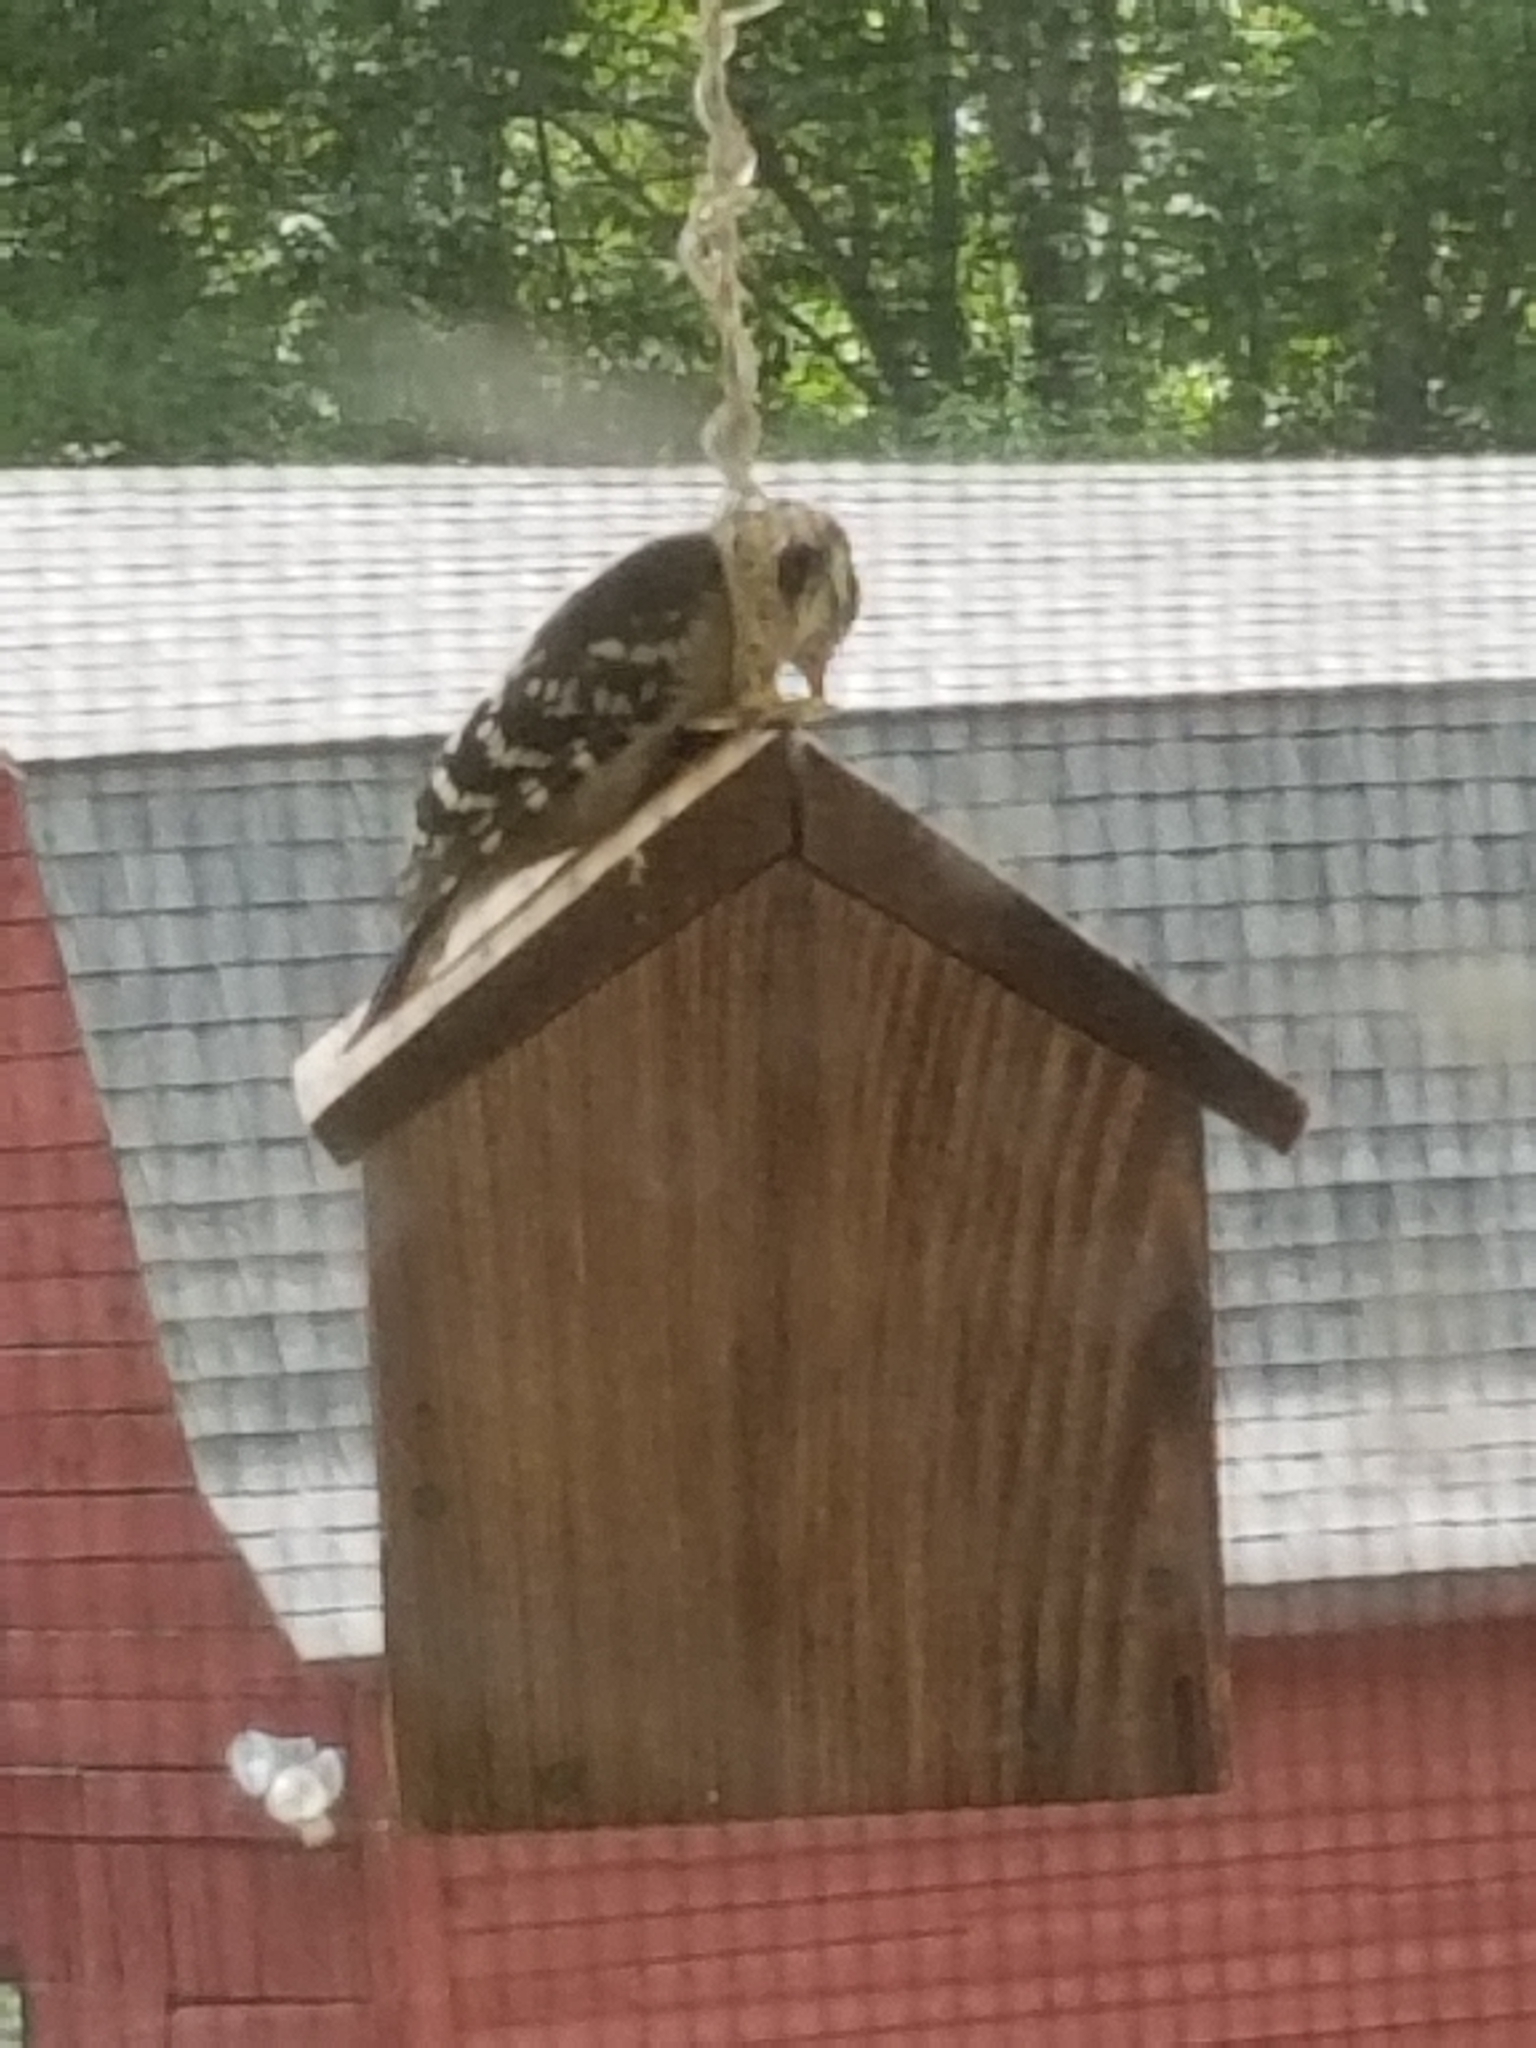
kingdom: Animalia
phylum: Chordata
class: Aves
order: Piciformes
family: Picidae
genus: Dryobates
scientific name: Dryobates pubescens
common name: Downy woodpecker
